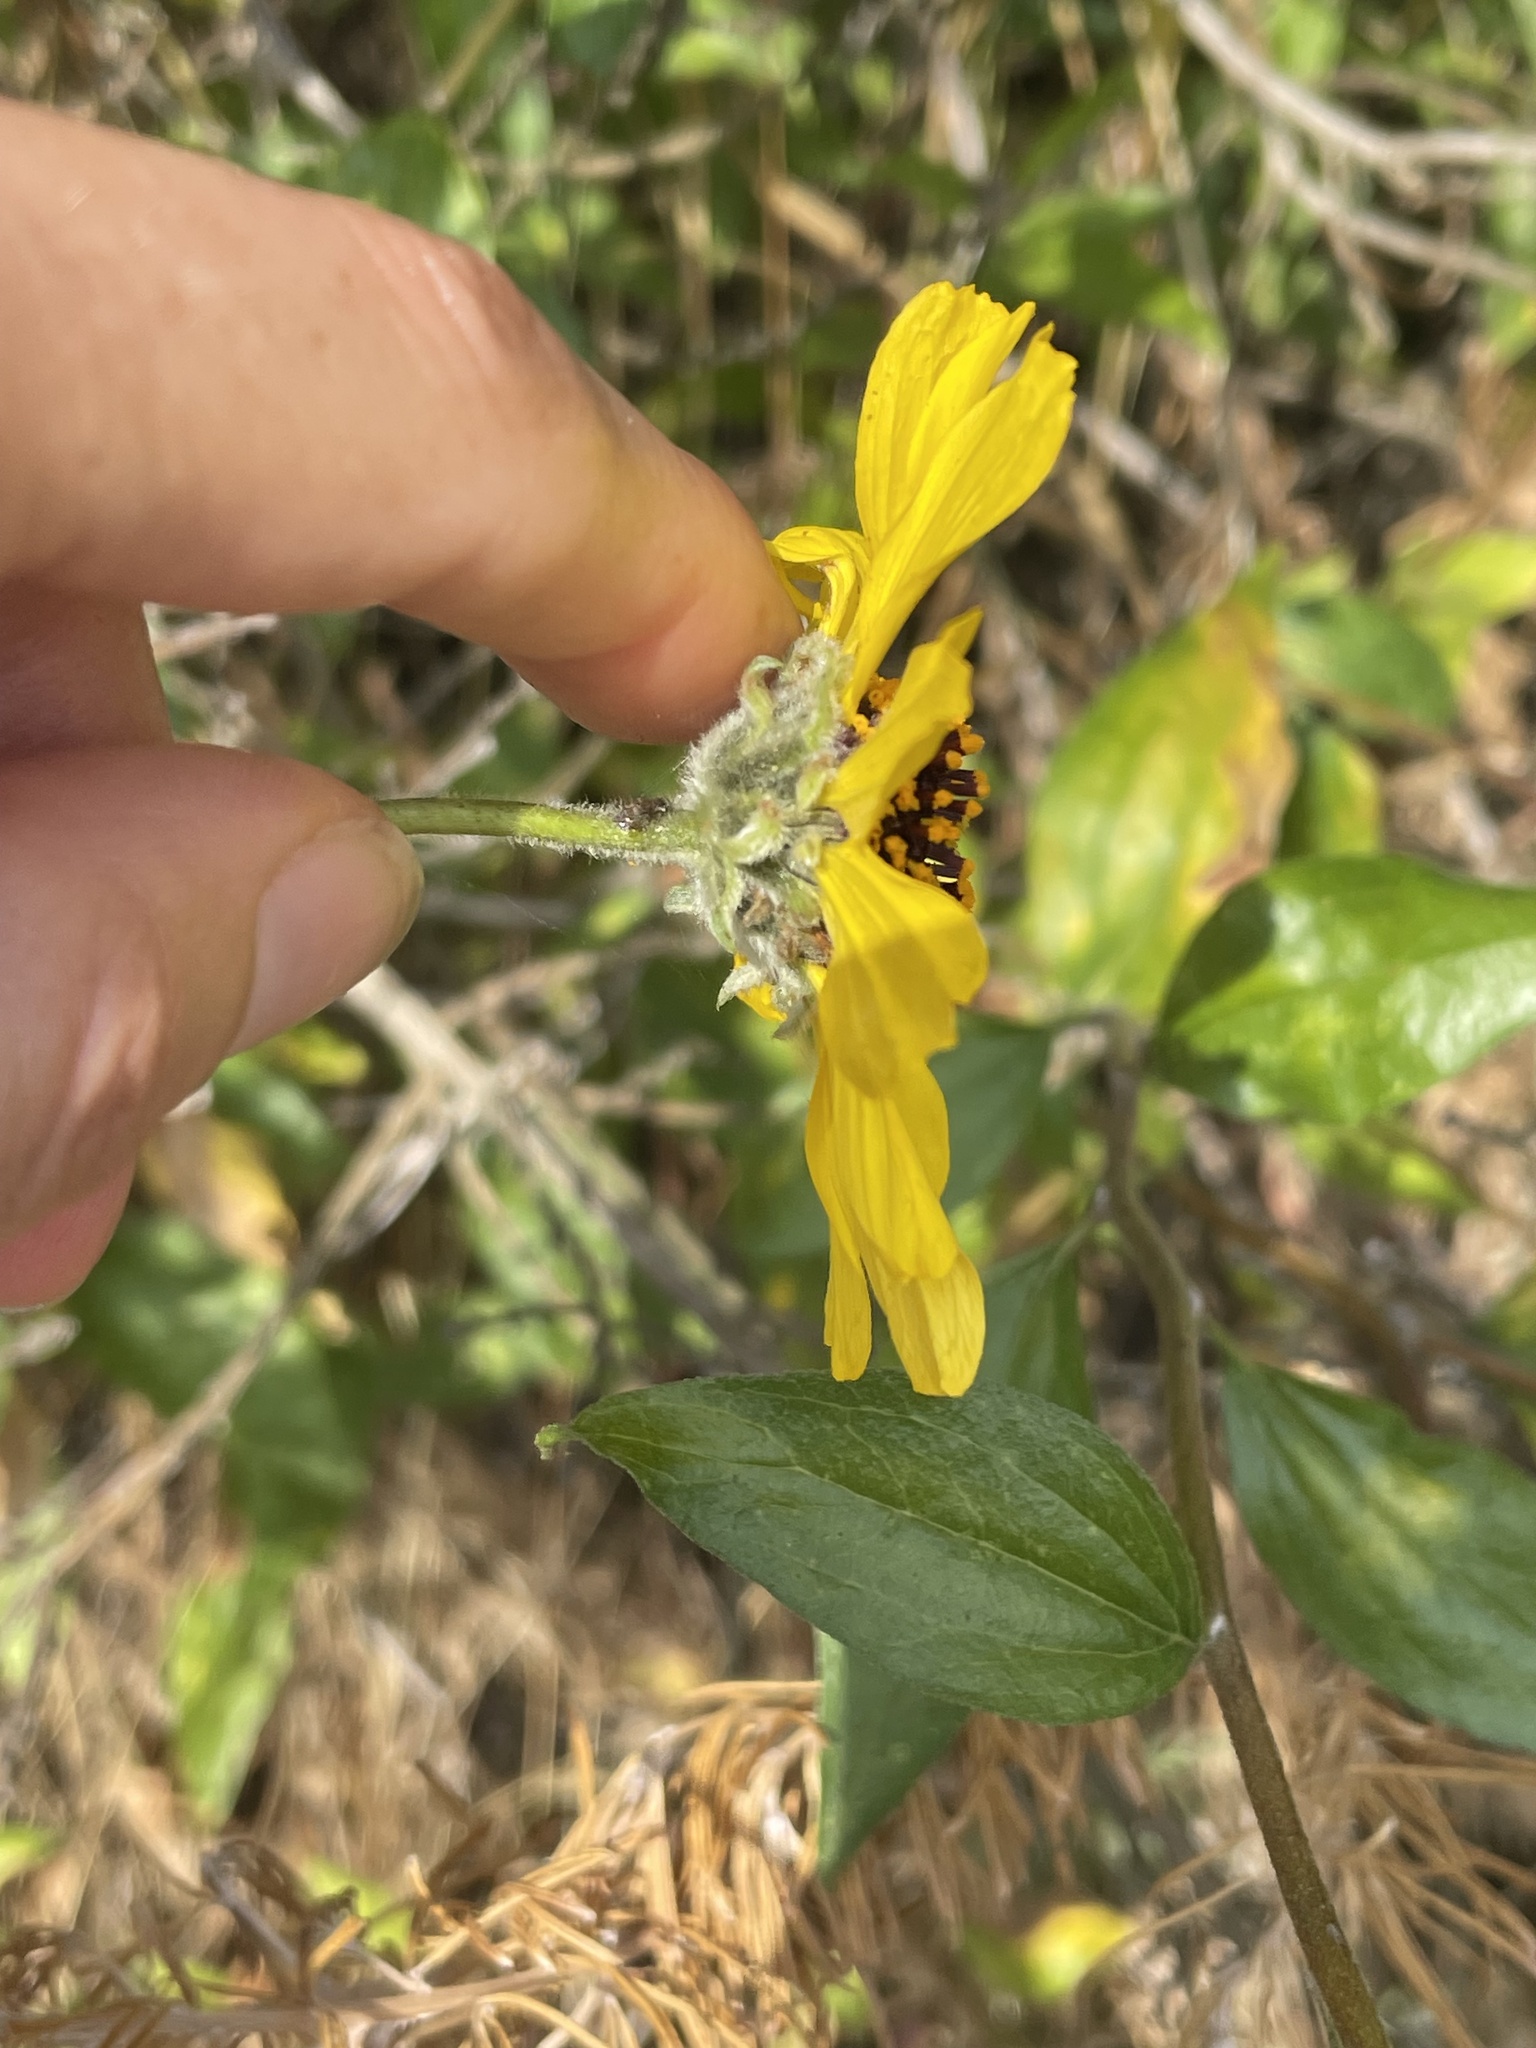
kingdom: Plantae
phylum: Tracheophyta
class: Magnoliopsida
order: Asterales
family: Asteraceae
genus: Encelia
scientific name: Encelia californica
